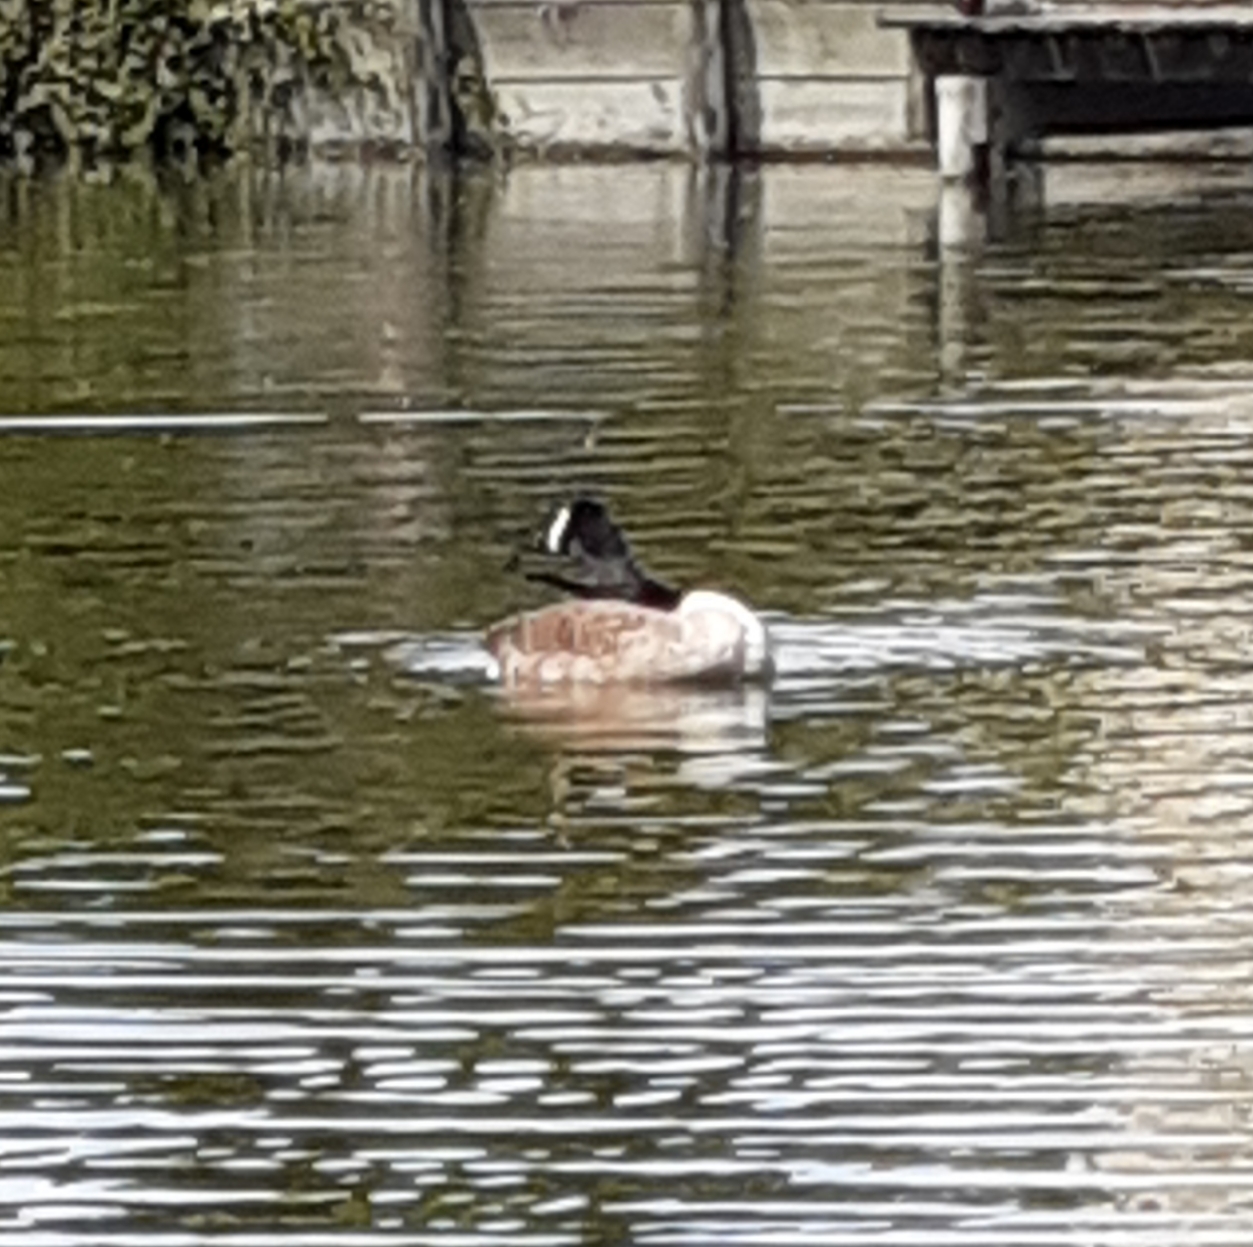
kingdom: Animalia
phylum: Chordata
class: Aves
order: Anseriformes
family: Anatidae
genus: Branta
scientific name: Branta canadensis
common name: Canada goose
